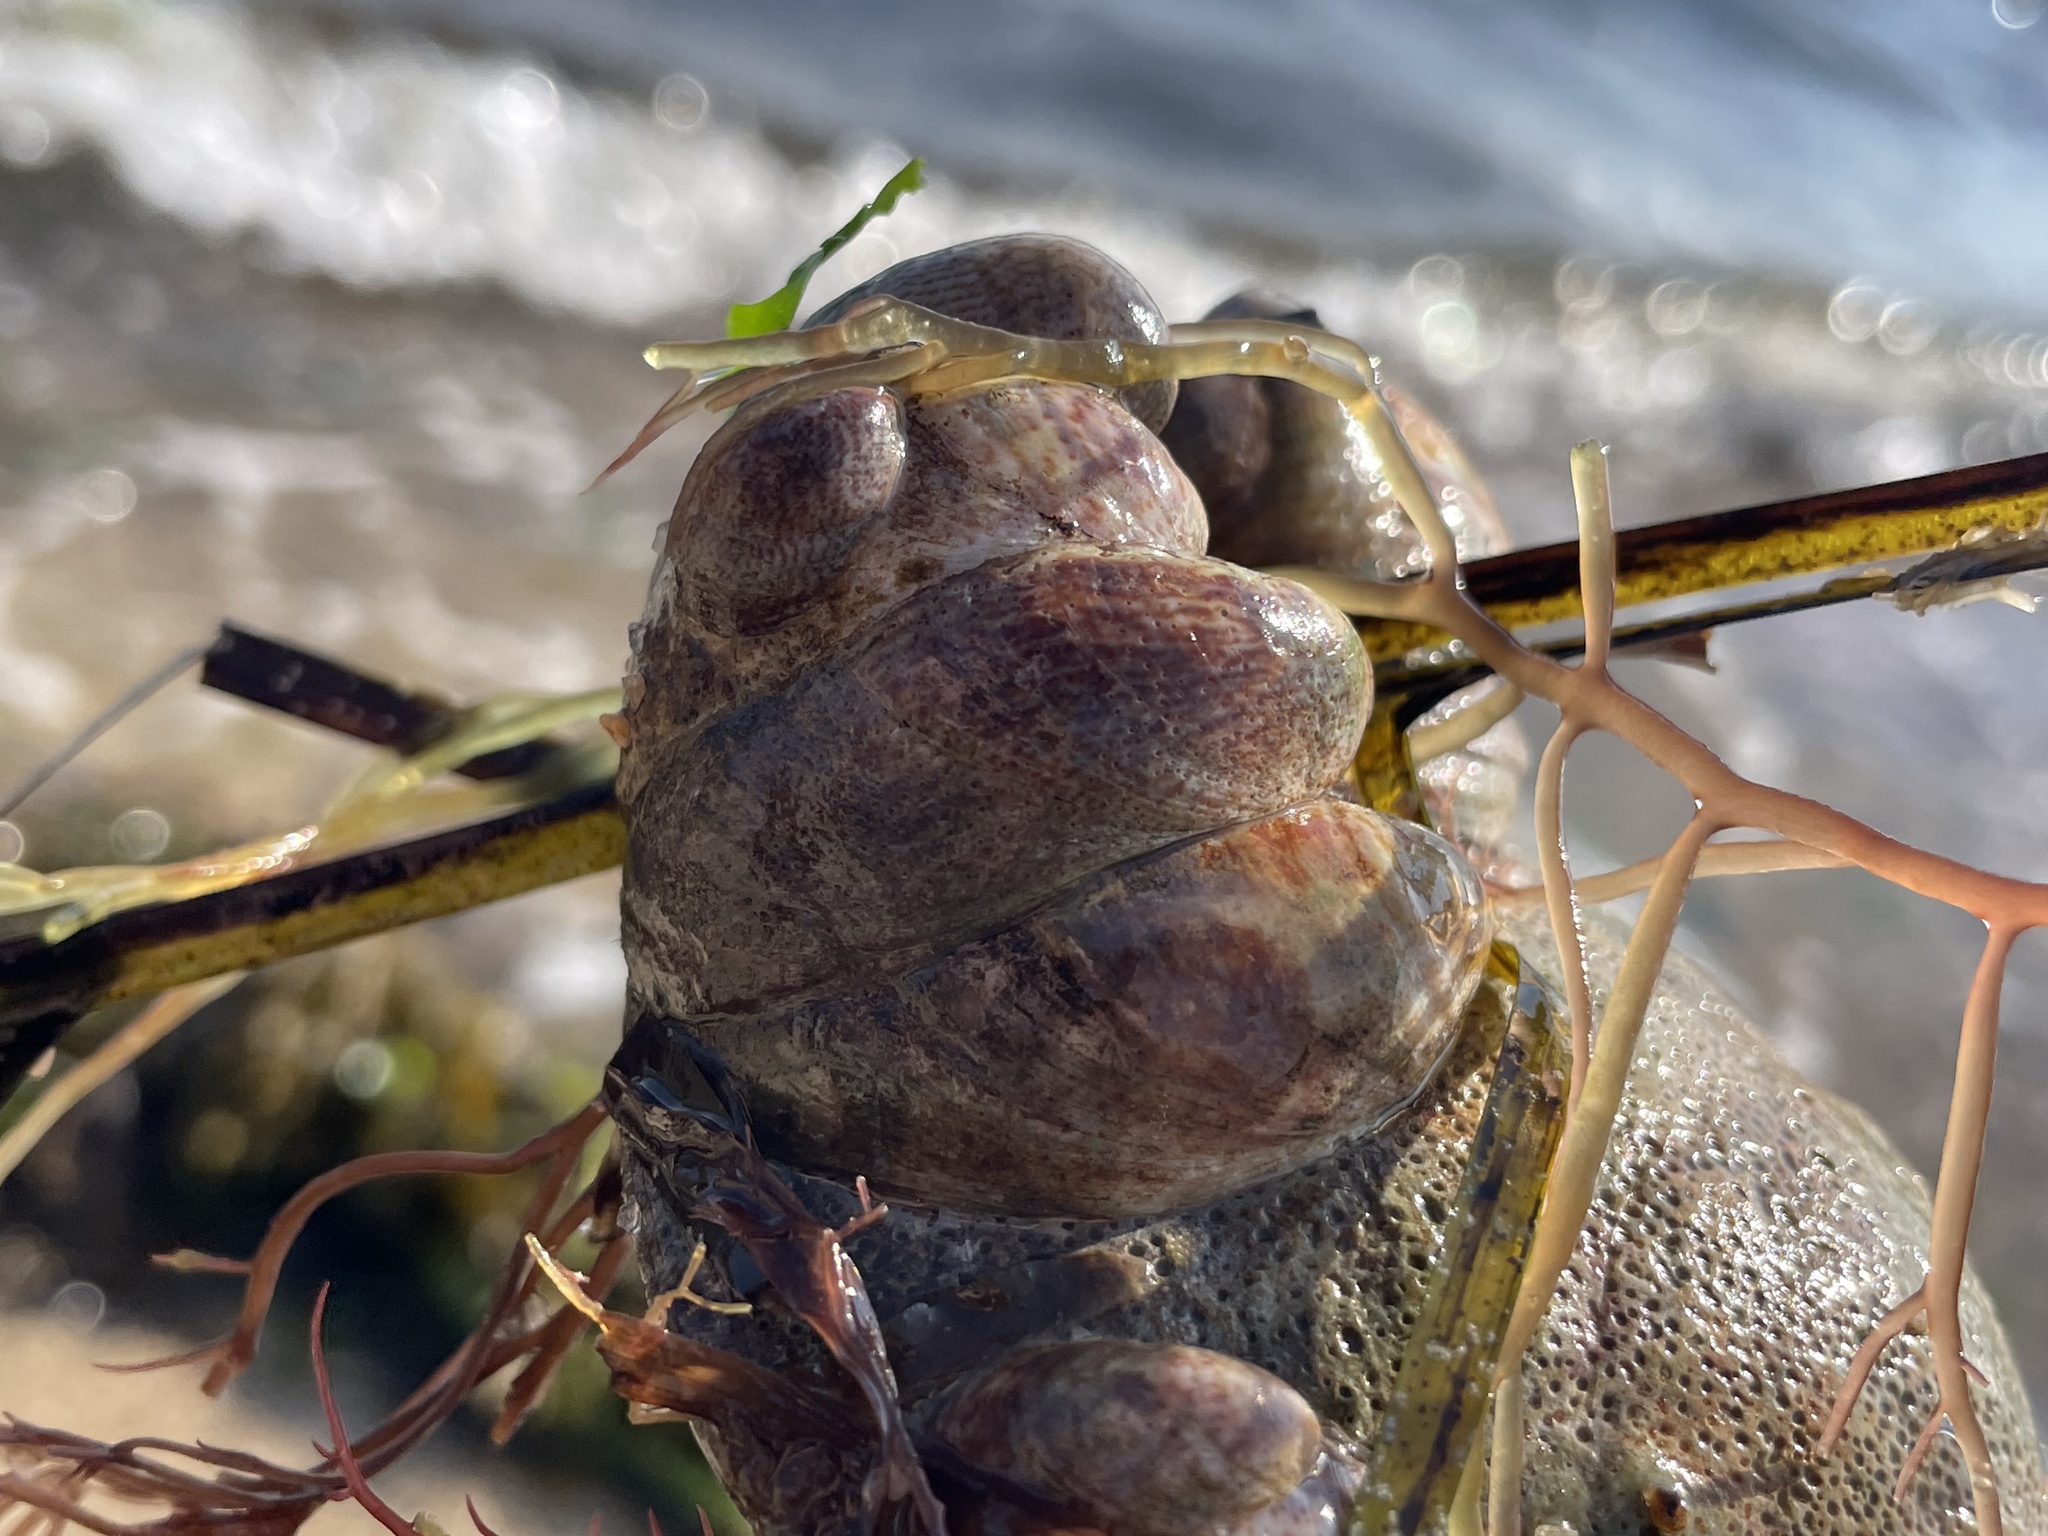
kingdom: Animalia
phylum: Mollusca
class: Gastropoda
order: Littorinimorpha
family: Calyptraeidae
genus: Crepidula
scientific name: Crepidula fornicata
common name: Slipper limpet
